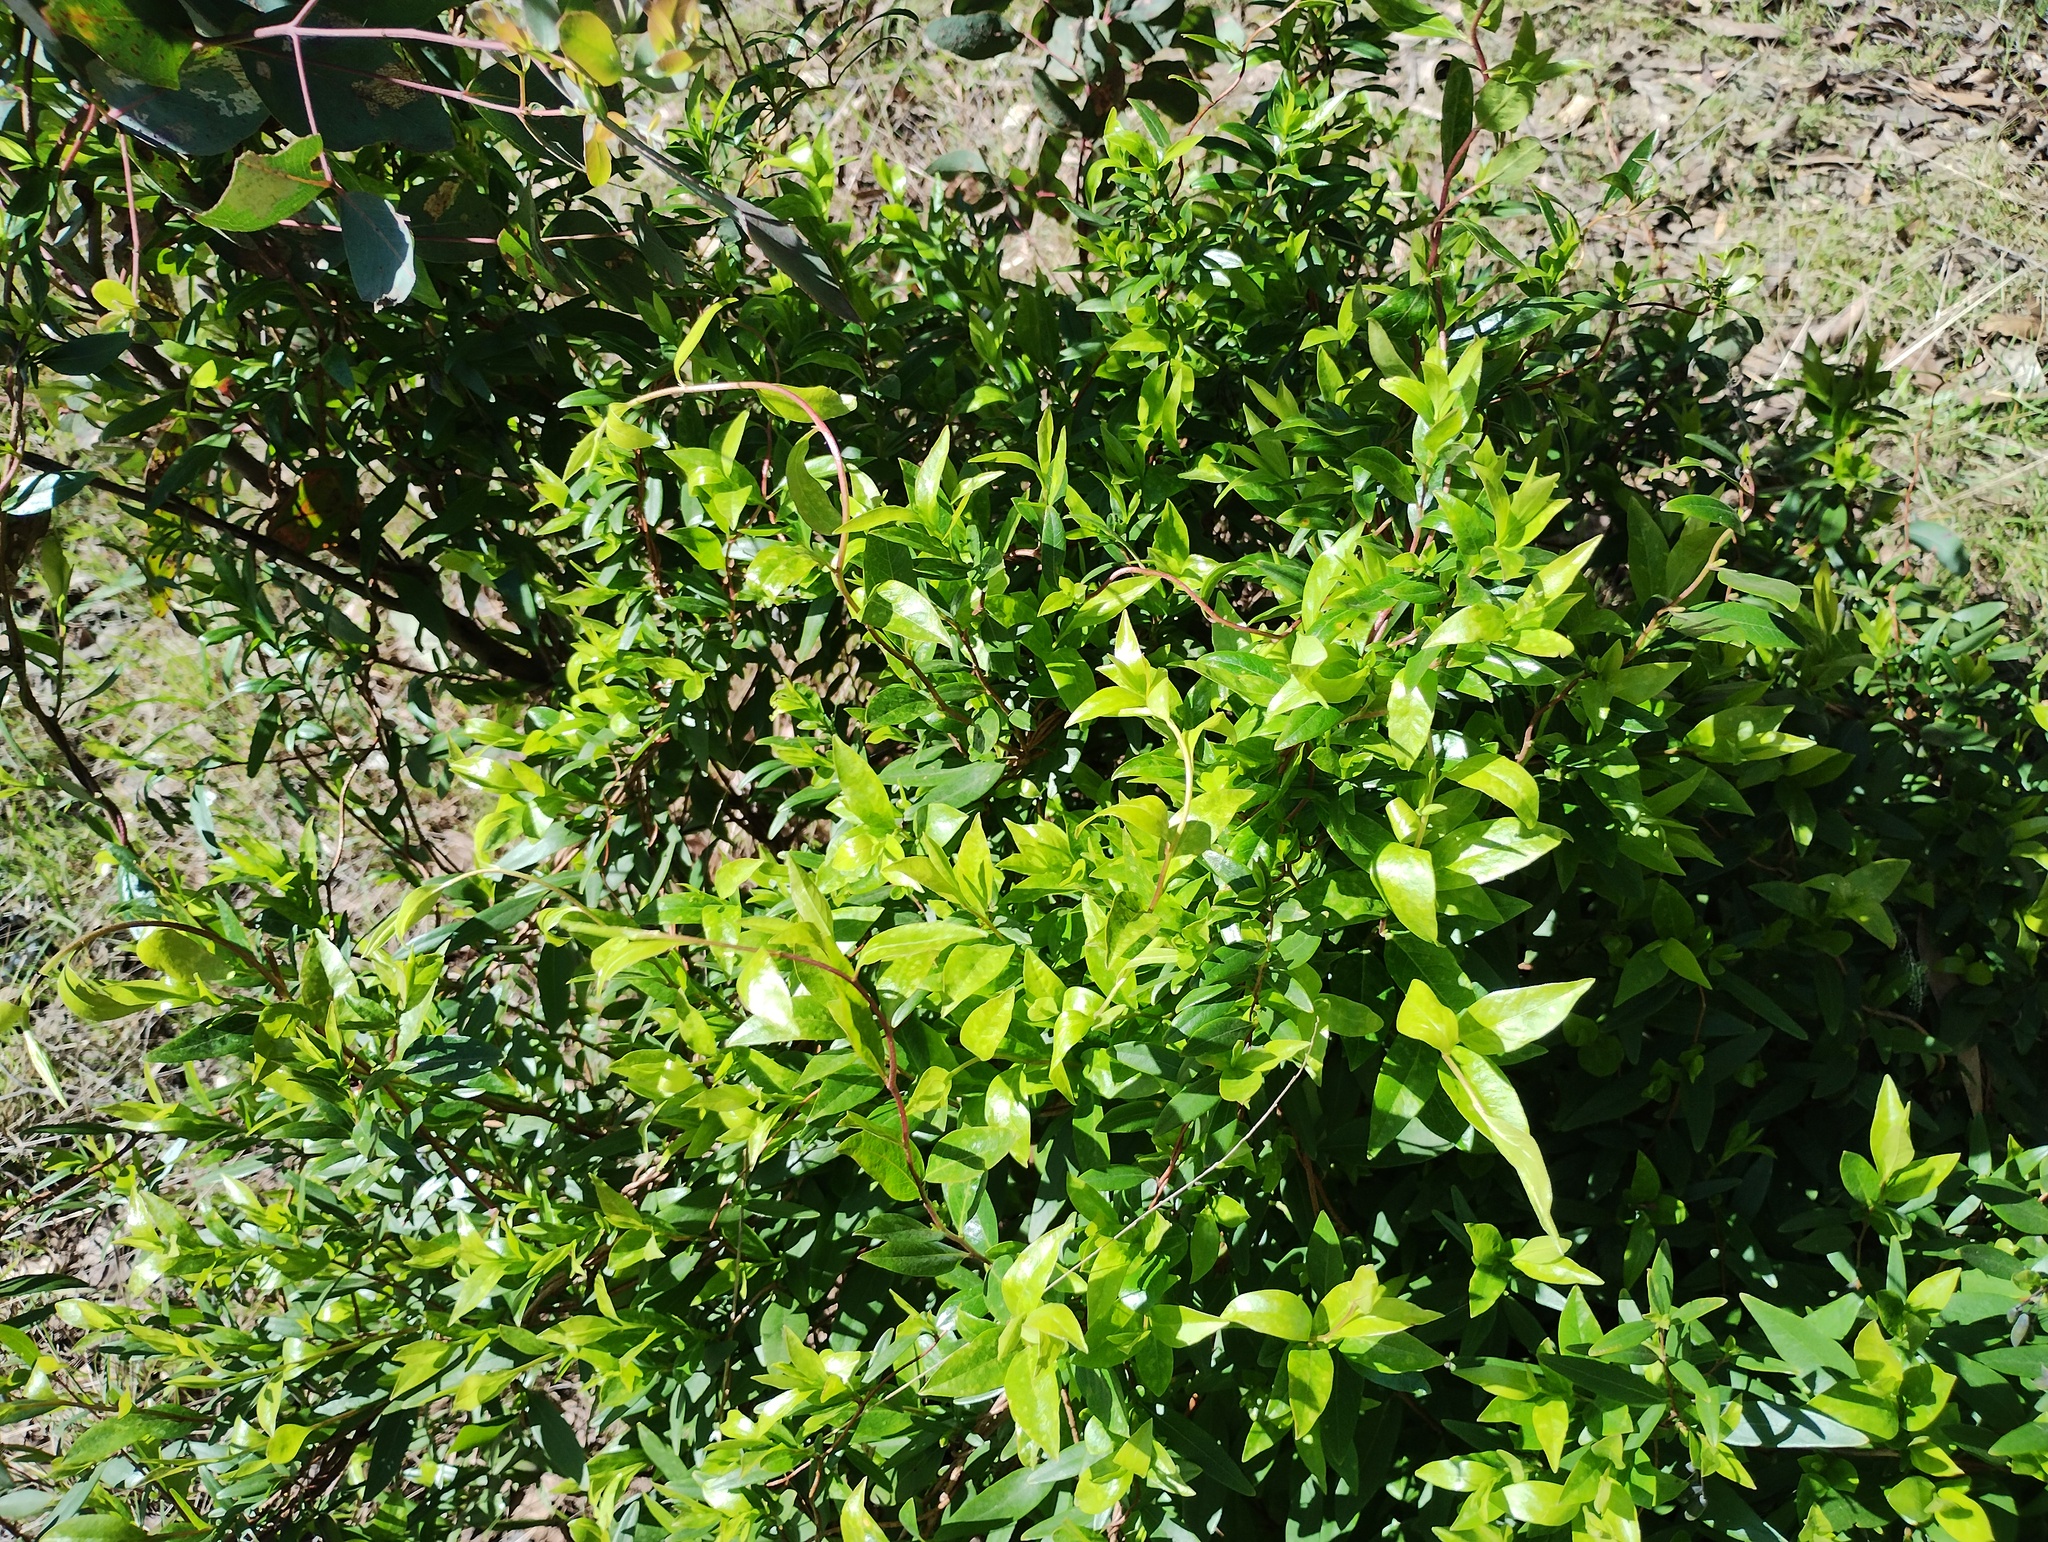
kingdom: Plantae
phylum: Tracheophyta
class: Magnoliopsida
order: Apiales
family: Pittosporaceae
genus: Billardiera
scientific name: Billardiera fusiformis
